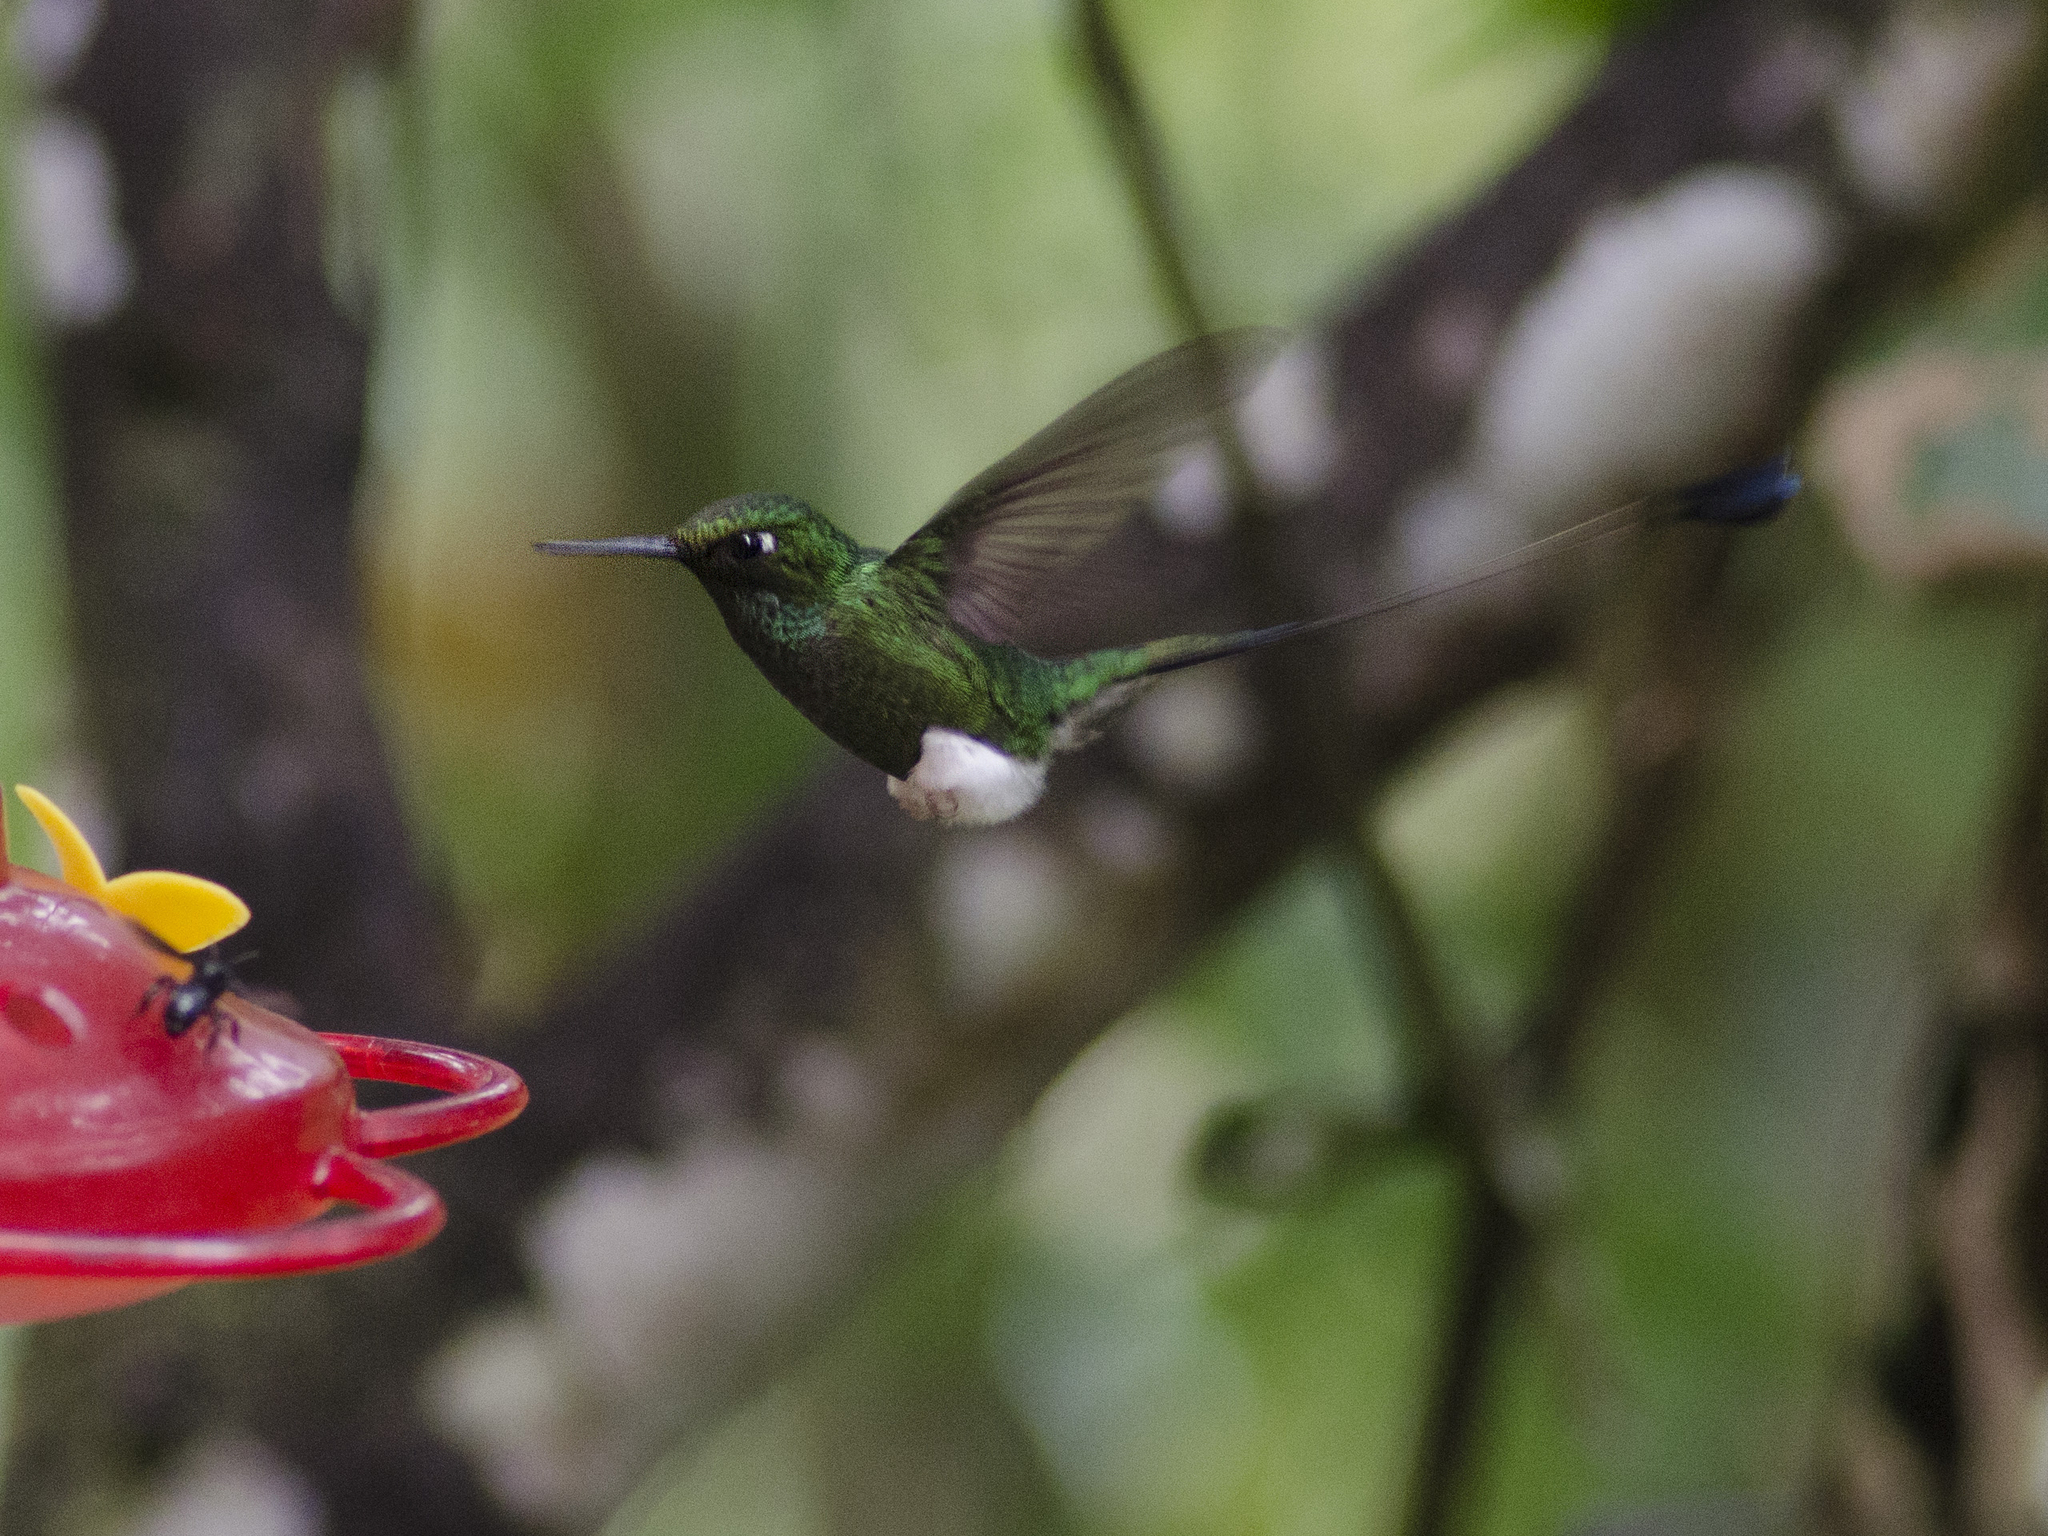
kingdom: Animalia
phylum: Chordata
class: Aves
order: Apodiformes
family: Trochilidae
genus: Ocreatus
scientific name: Ocreatus underwoodii
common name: Booted racket-tail
